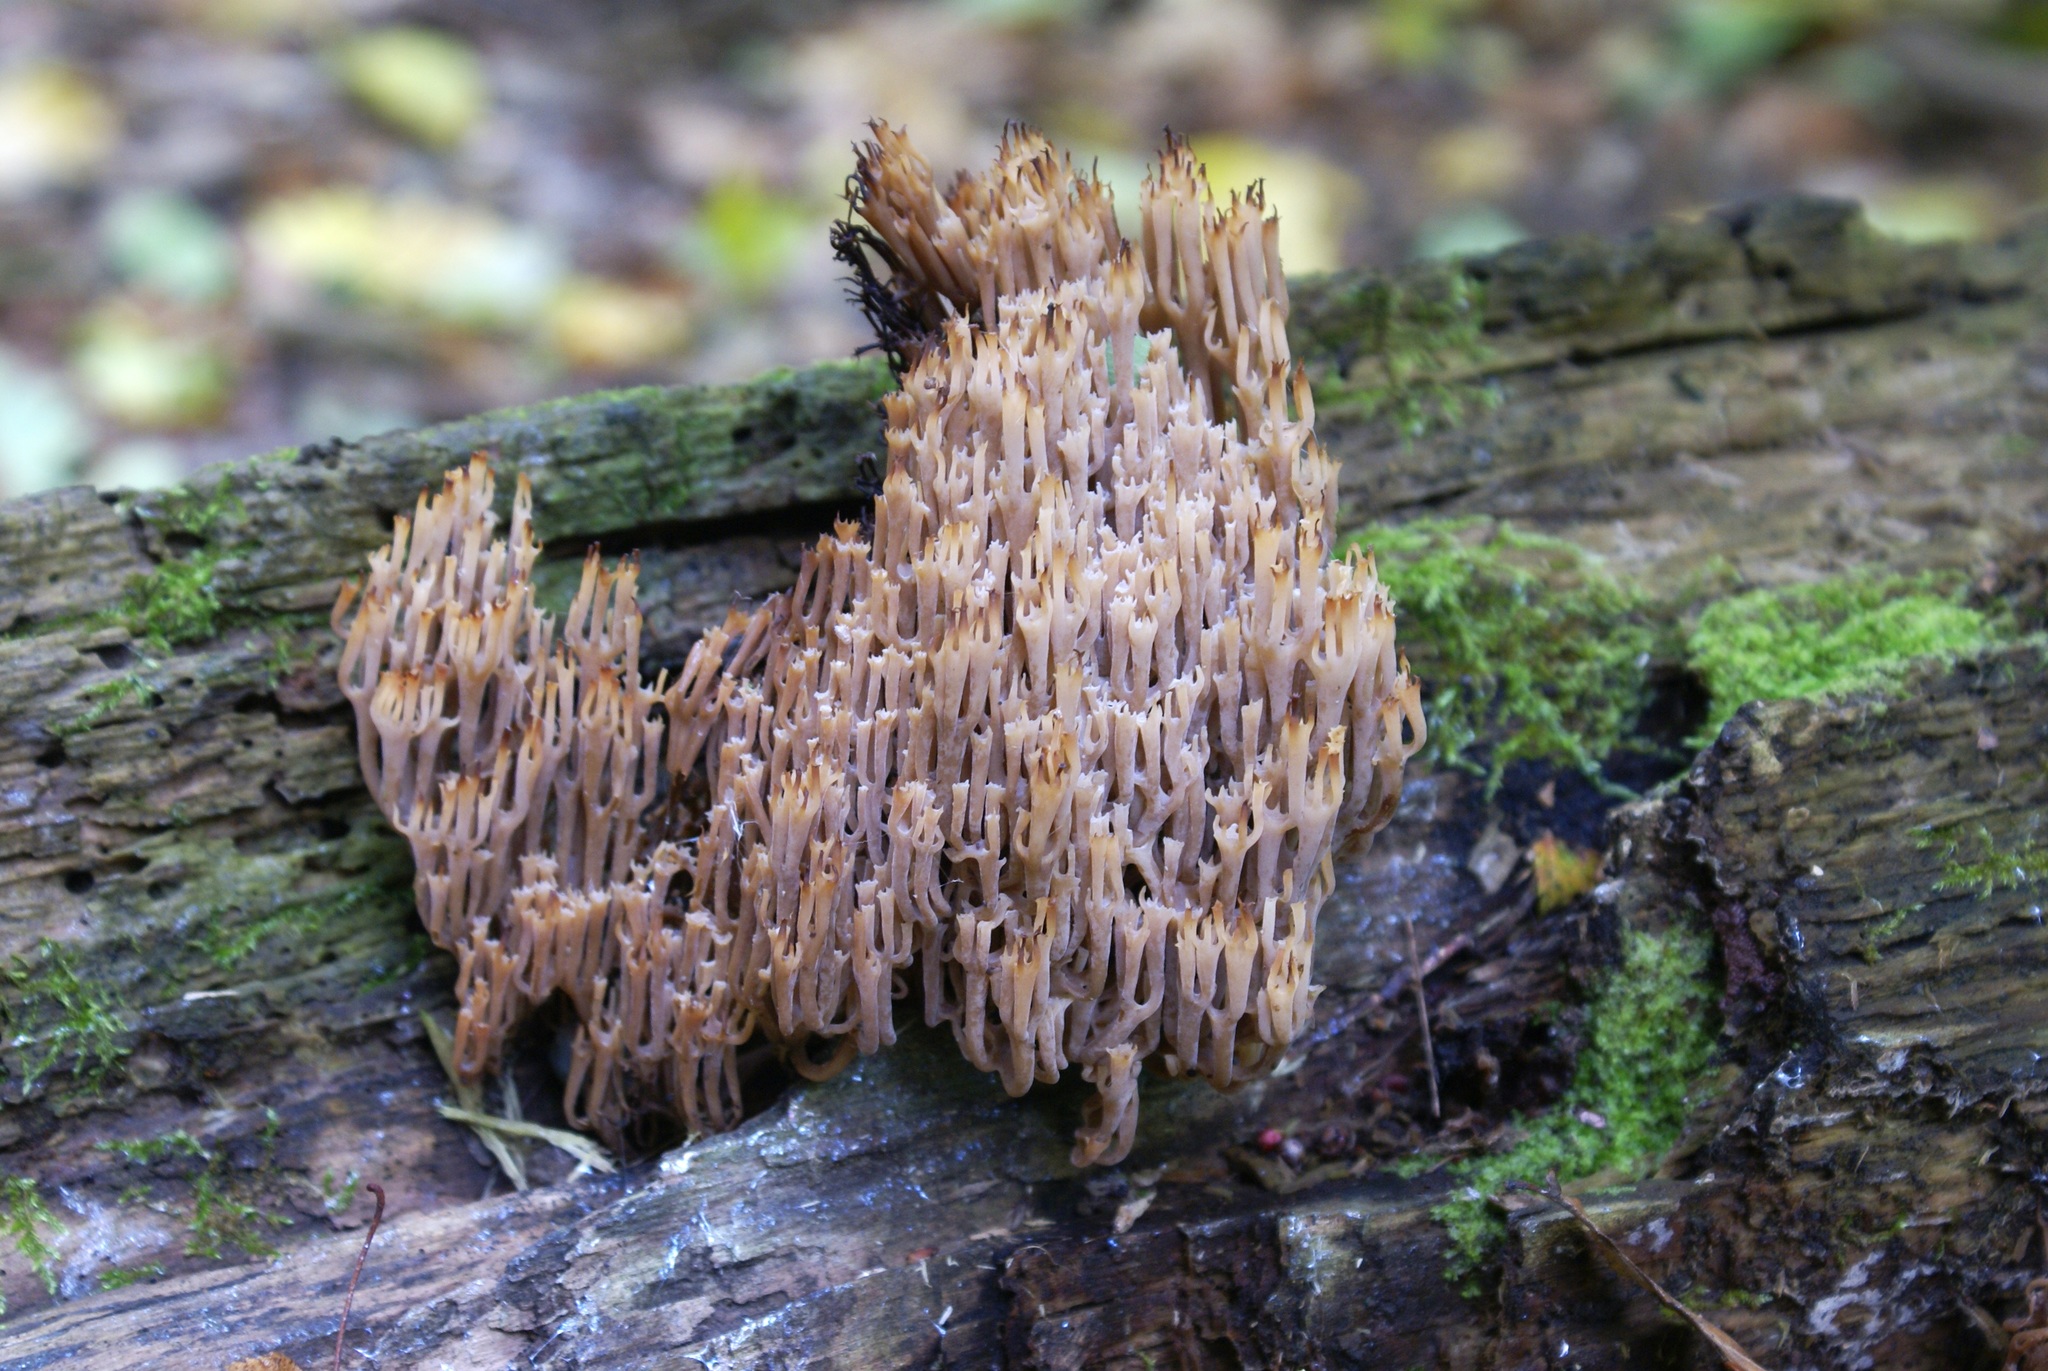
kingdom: Fungi
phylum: Basidiomycota
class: Agaricomycetes
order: Russulales
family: Auriscalpiaceae
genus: Artomyces
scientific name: Artomyces pyxidatus
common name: Crown-tipped coral fungus
